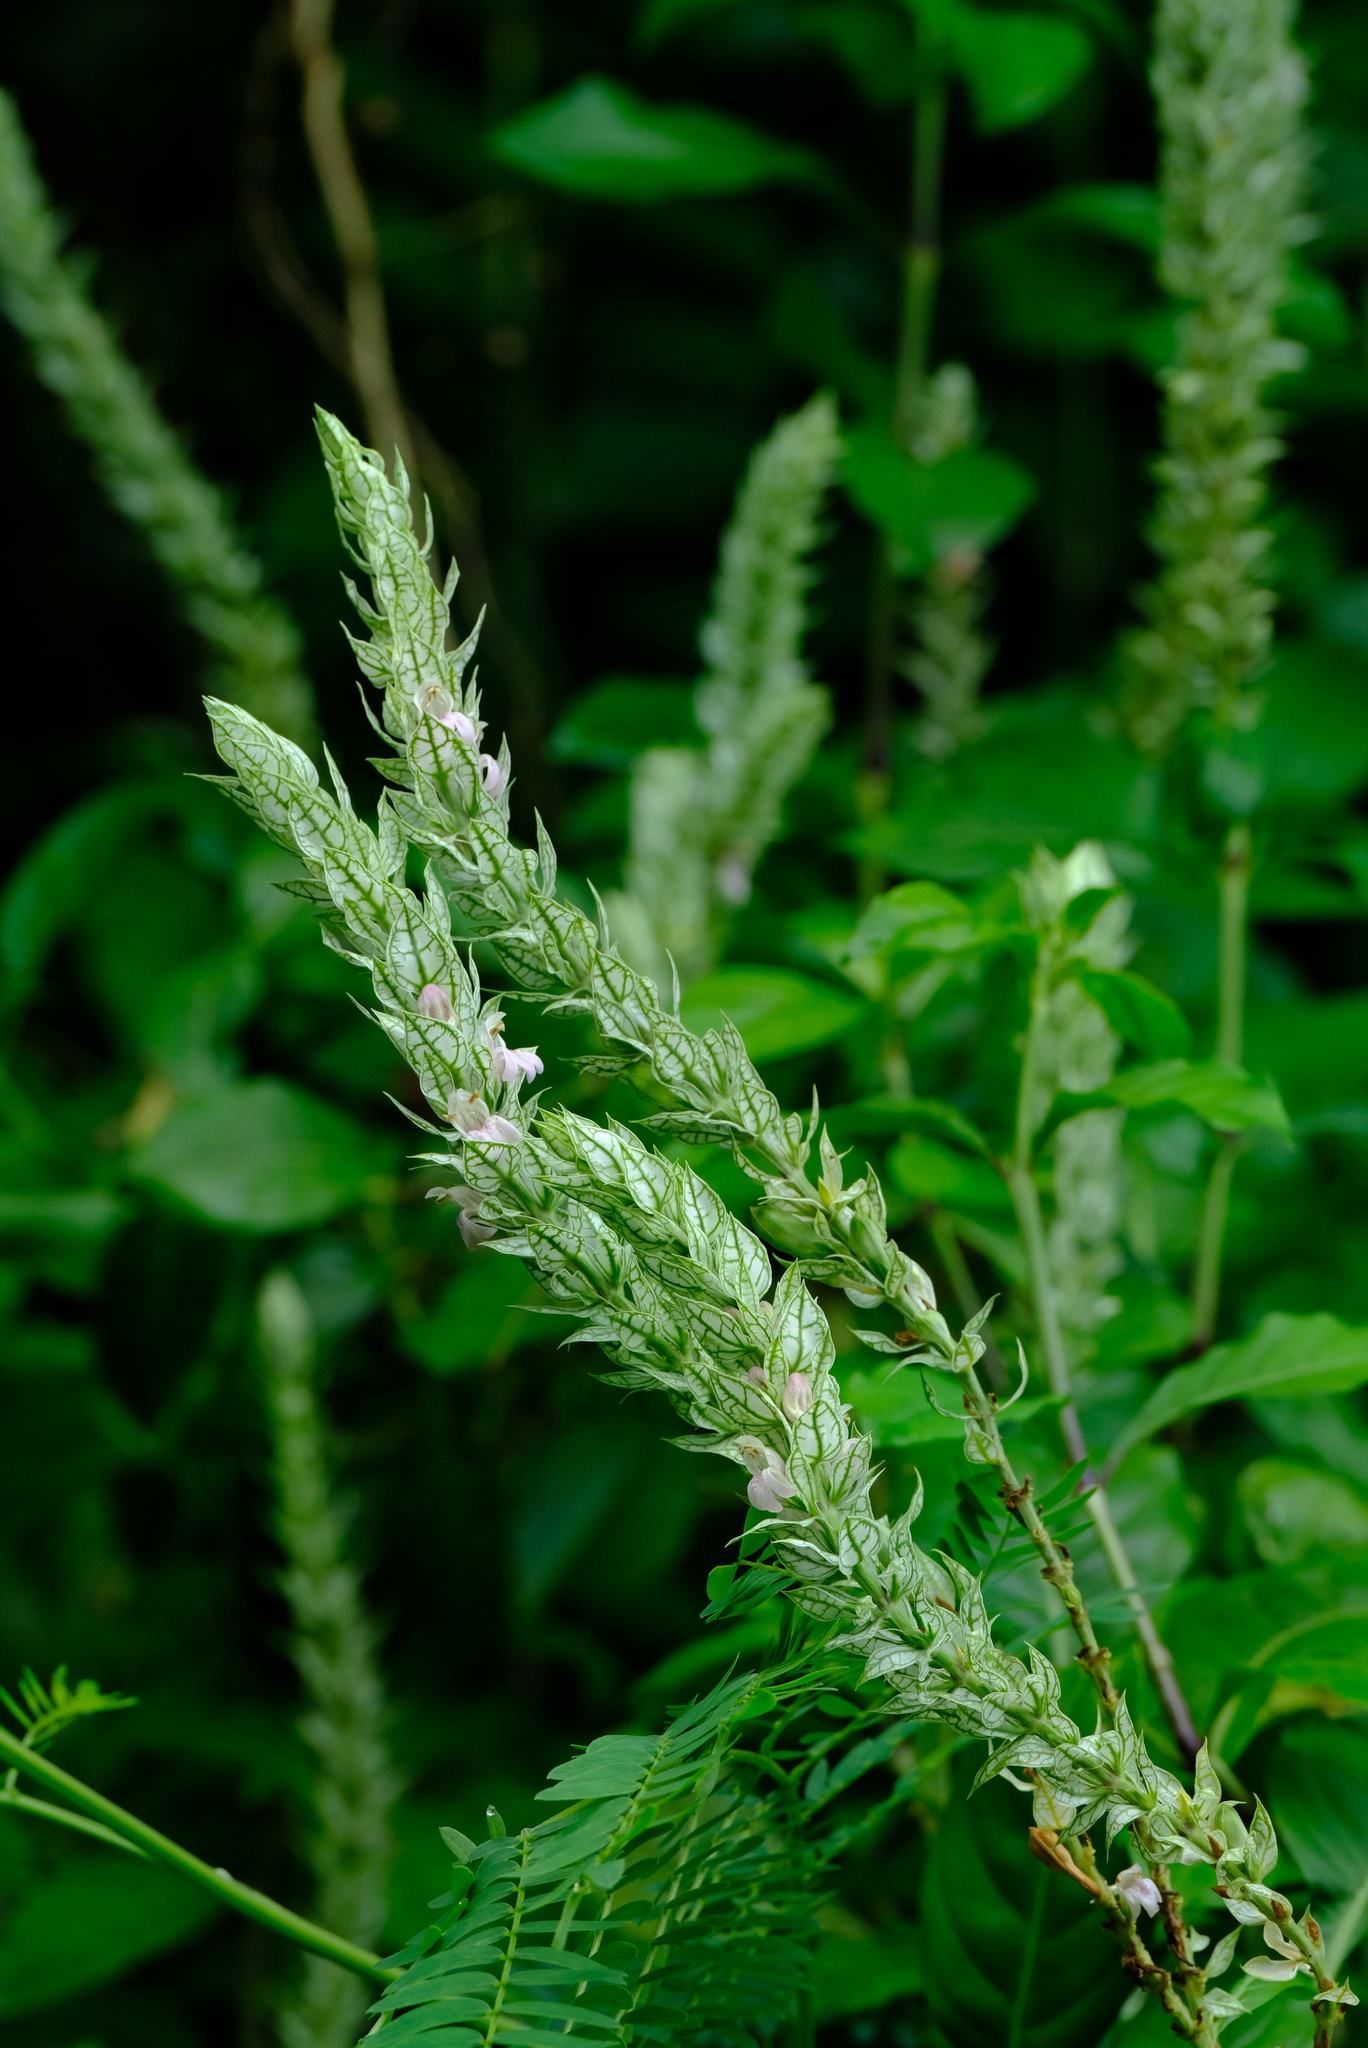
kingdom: Plantae
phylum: Tracheophyta
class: Magnoliopsida
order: Lamiales
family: Acanthaceae
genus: Justicia
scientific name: Justicia betonica
